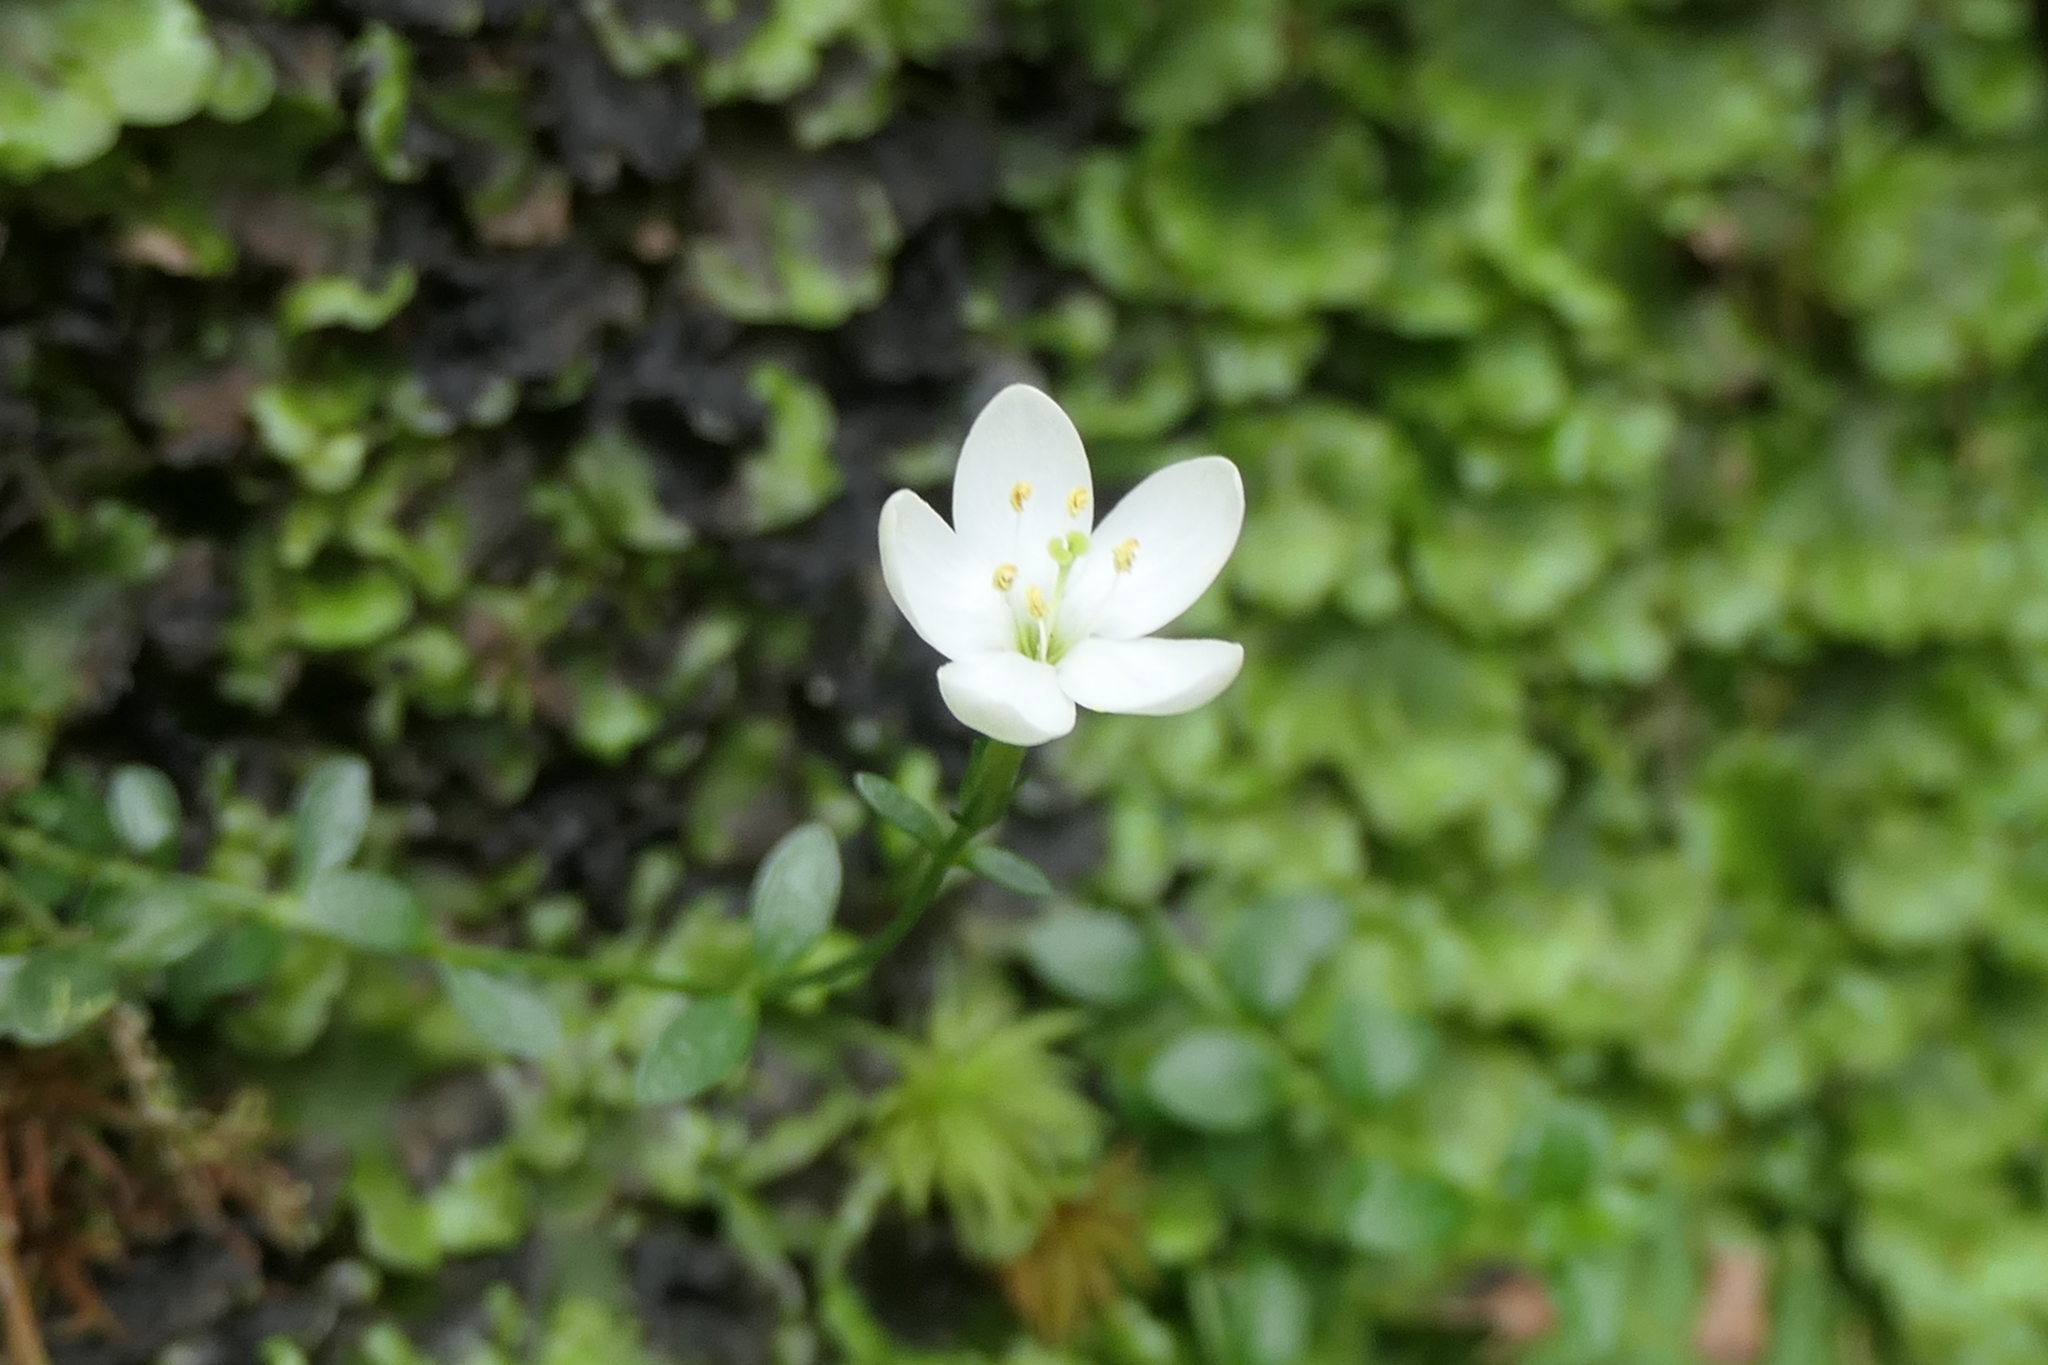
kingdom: Plantae
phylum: Tracheophyta
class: Magnoliopsida
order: Gentianales
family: Gentianaceae
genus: Centaurium
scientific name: Centaurium scilloides
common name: Perennial centaury
